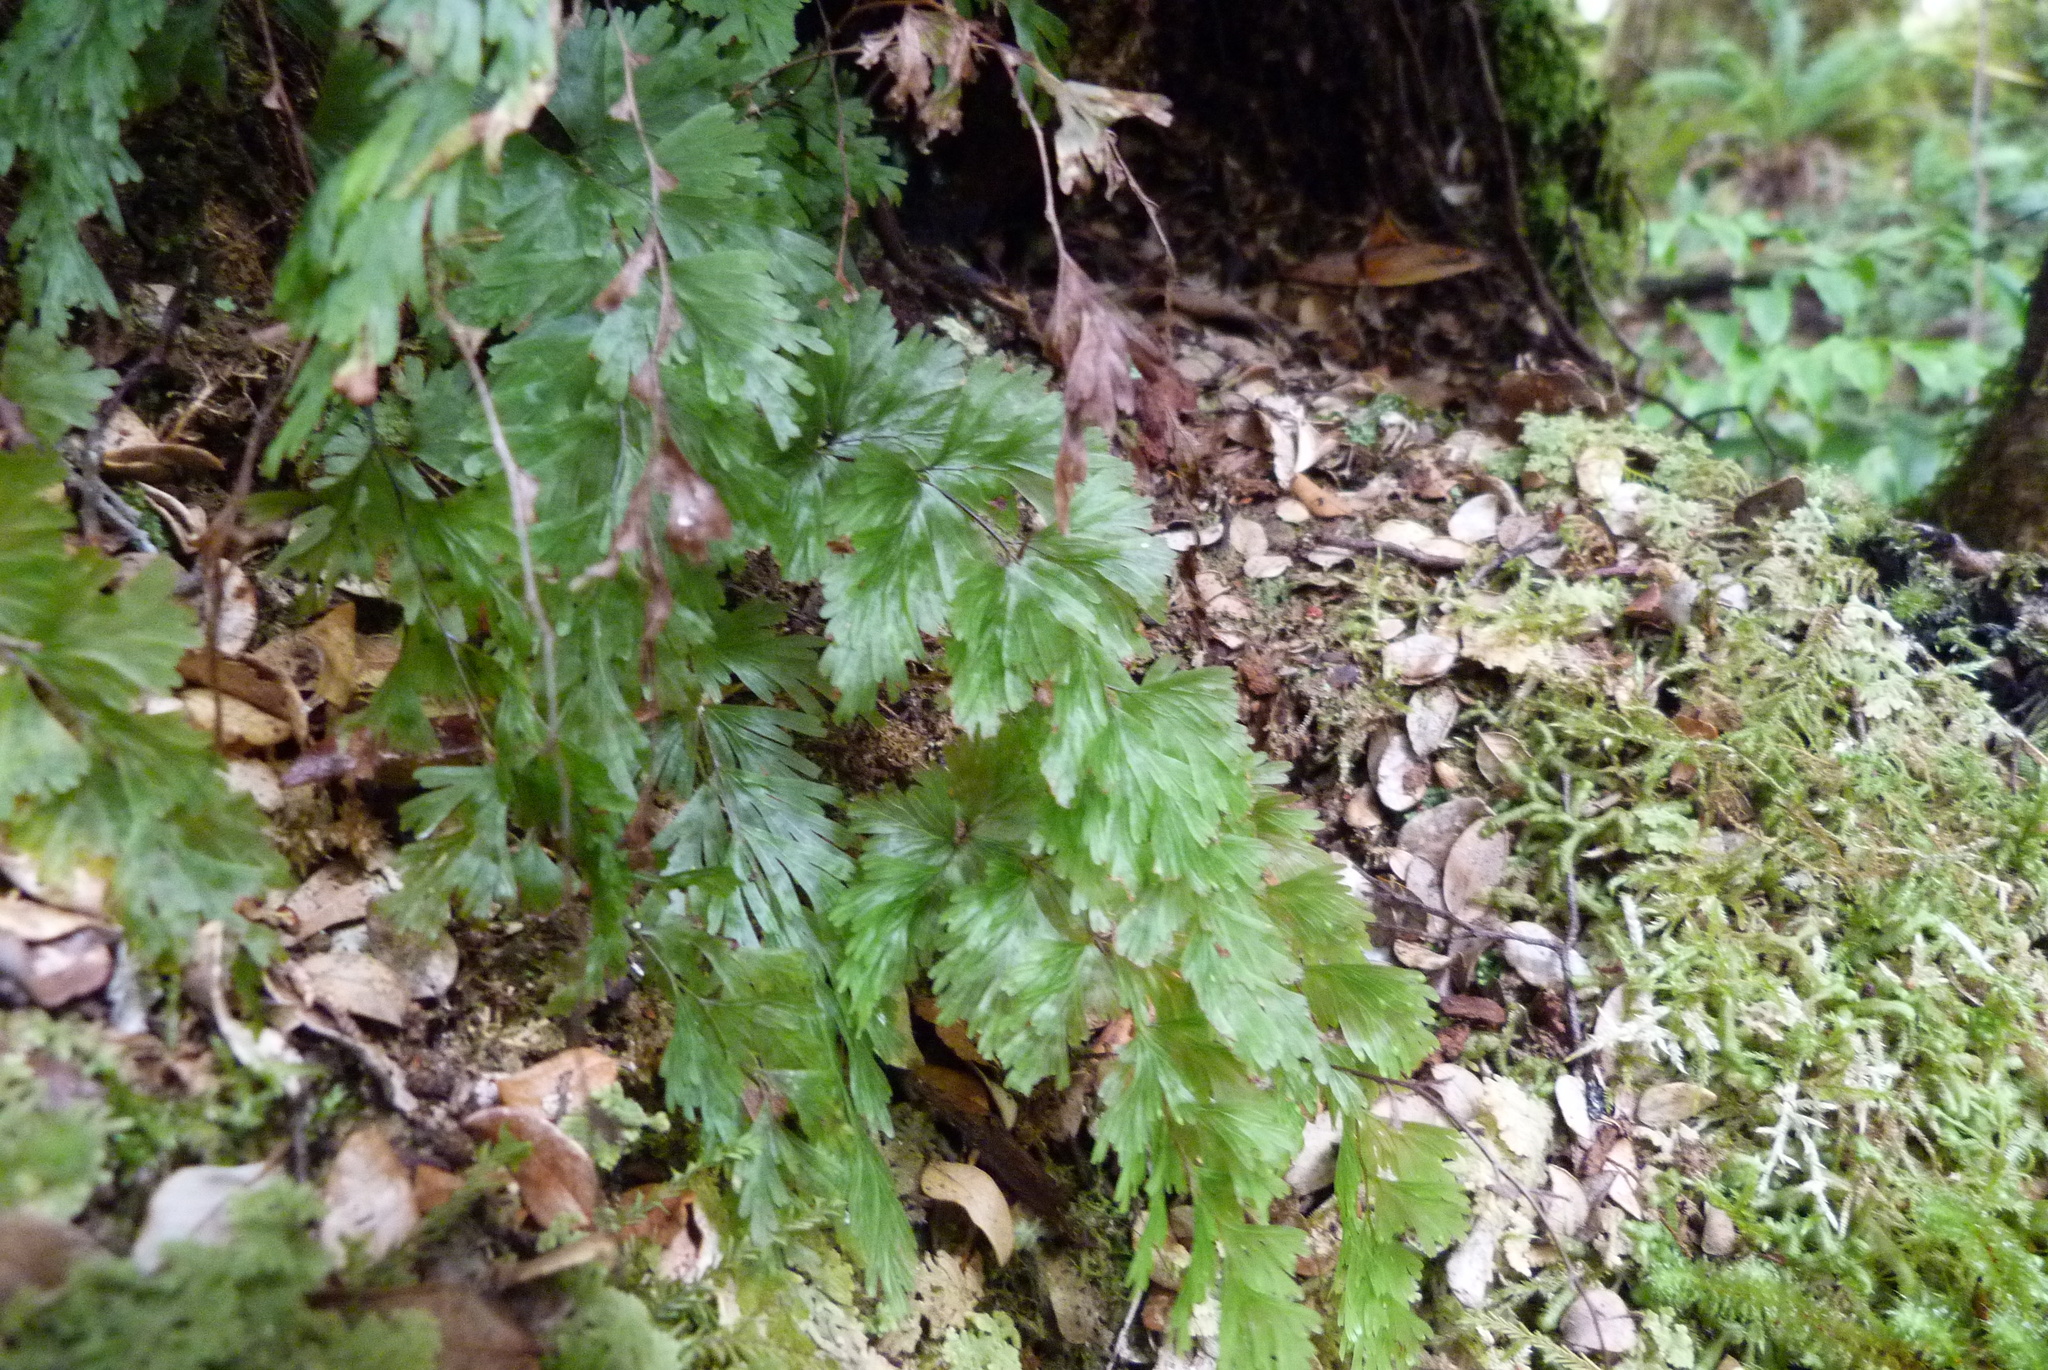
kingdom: Plantae
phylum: Tracheophyta
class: Polypodiopsida
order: Hymenophyllales
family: Hymenophyllaceae
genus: Hymenophyllum
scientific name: Hymenophyllum flabellatum
